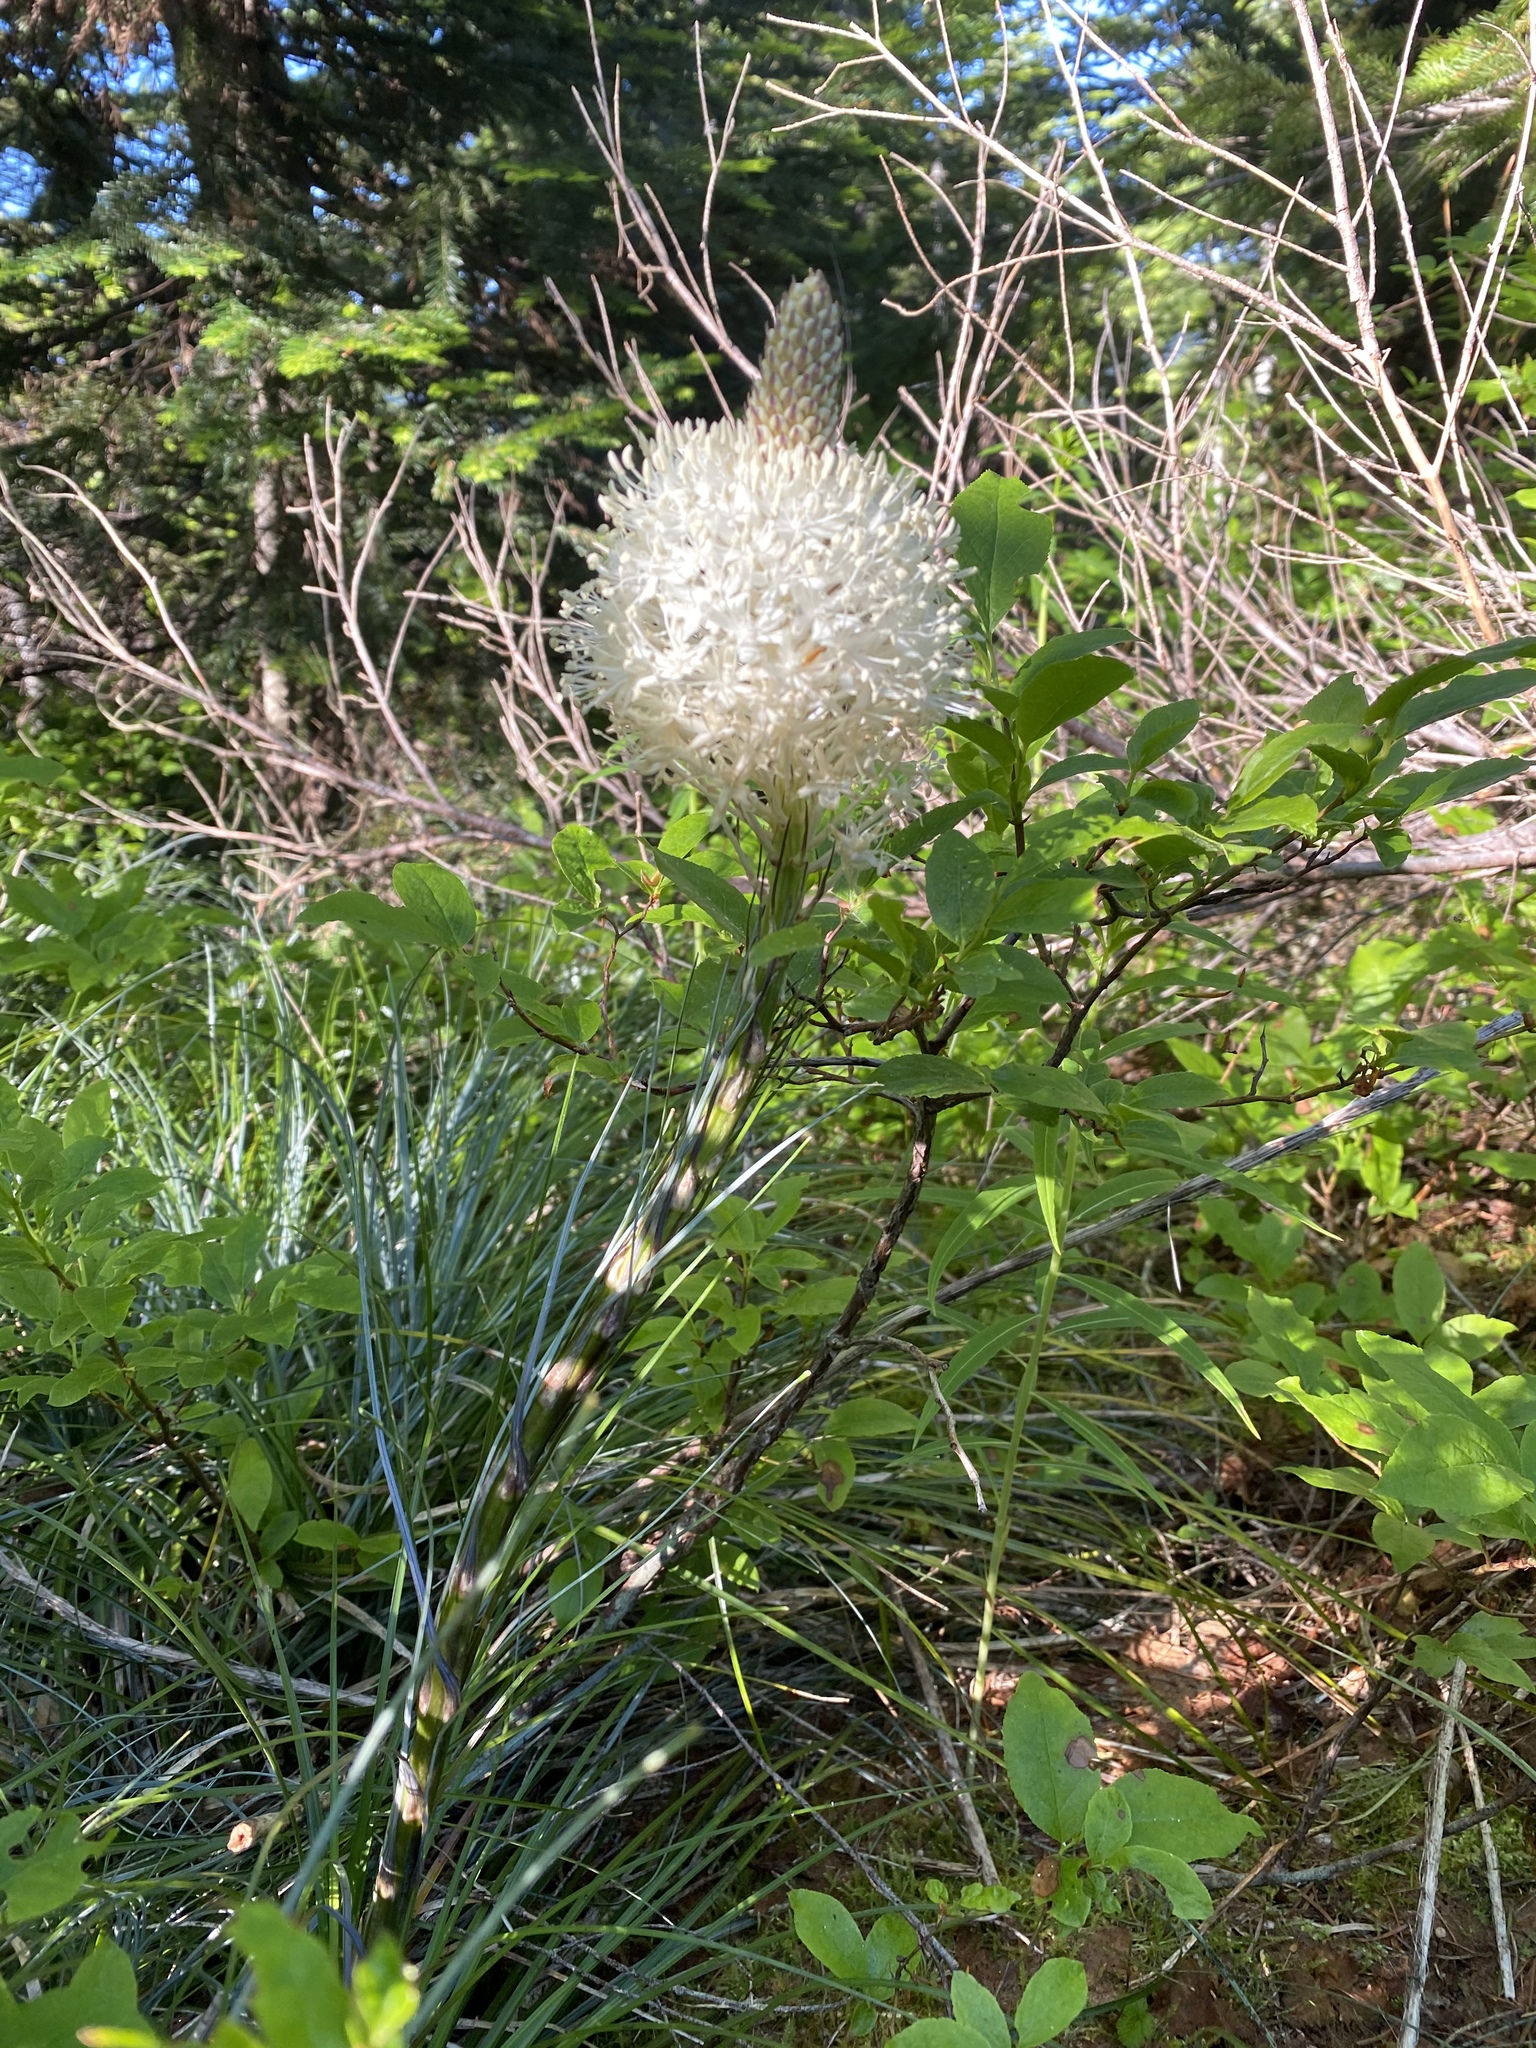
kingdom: Plantae
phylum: Tracheophyta
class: Liliopsida
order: Liliales
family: Melanthiaceae
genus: Xerophyllum
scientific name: Xerophyllum tenax
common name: Bear-grass
